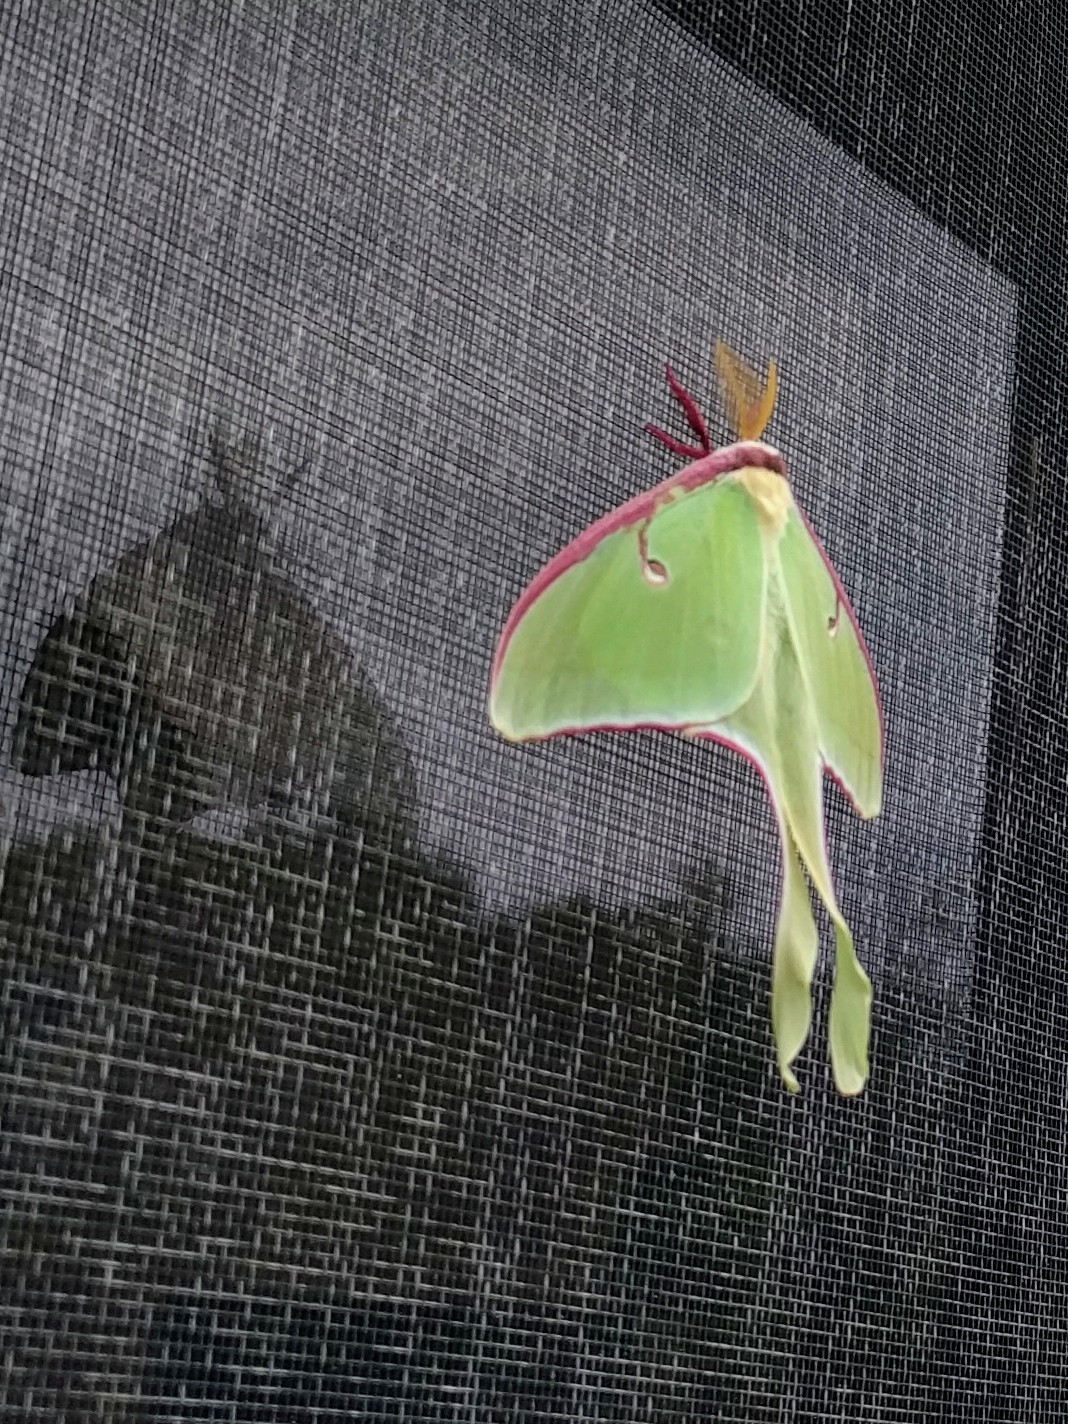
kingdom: Animalia
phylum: Arthropoda
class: Insecta
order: Lepidoptera
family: Saturniidae
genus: Actias
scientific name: Actias luna
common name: Luna moth
